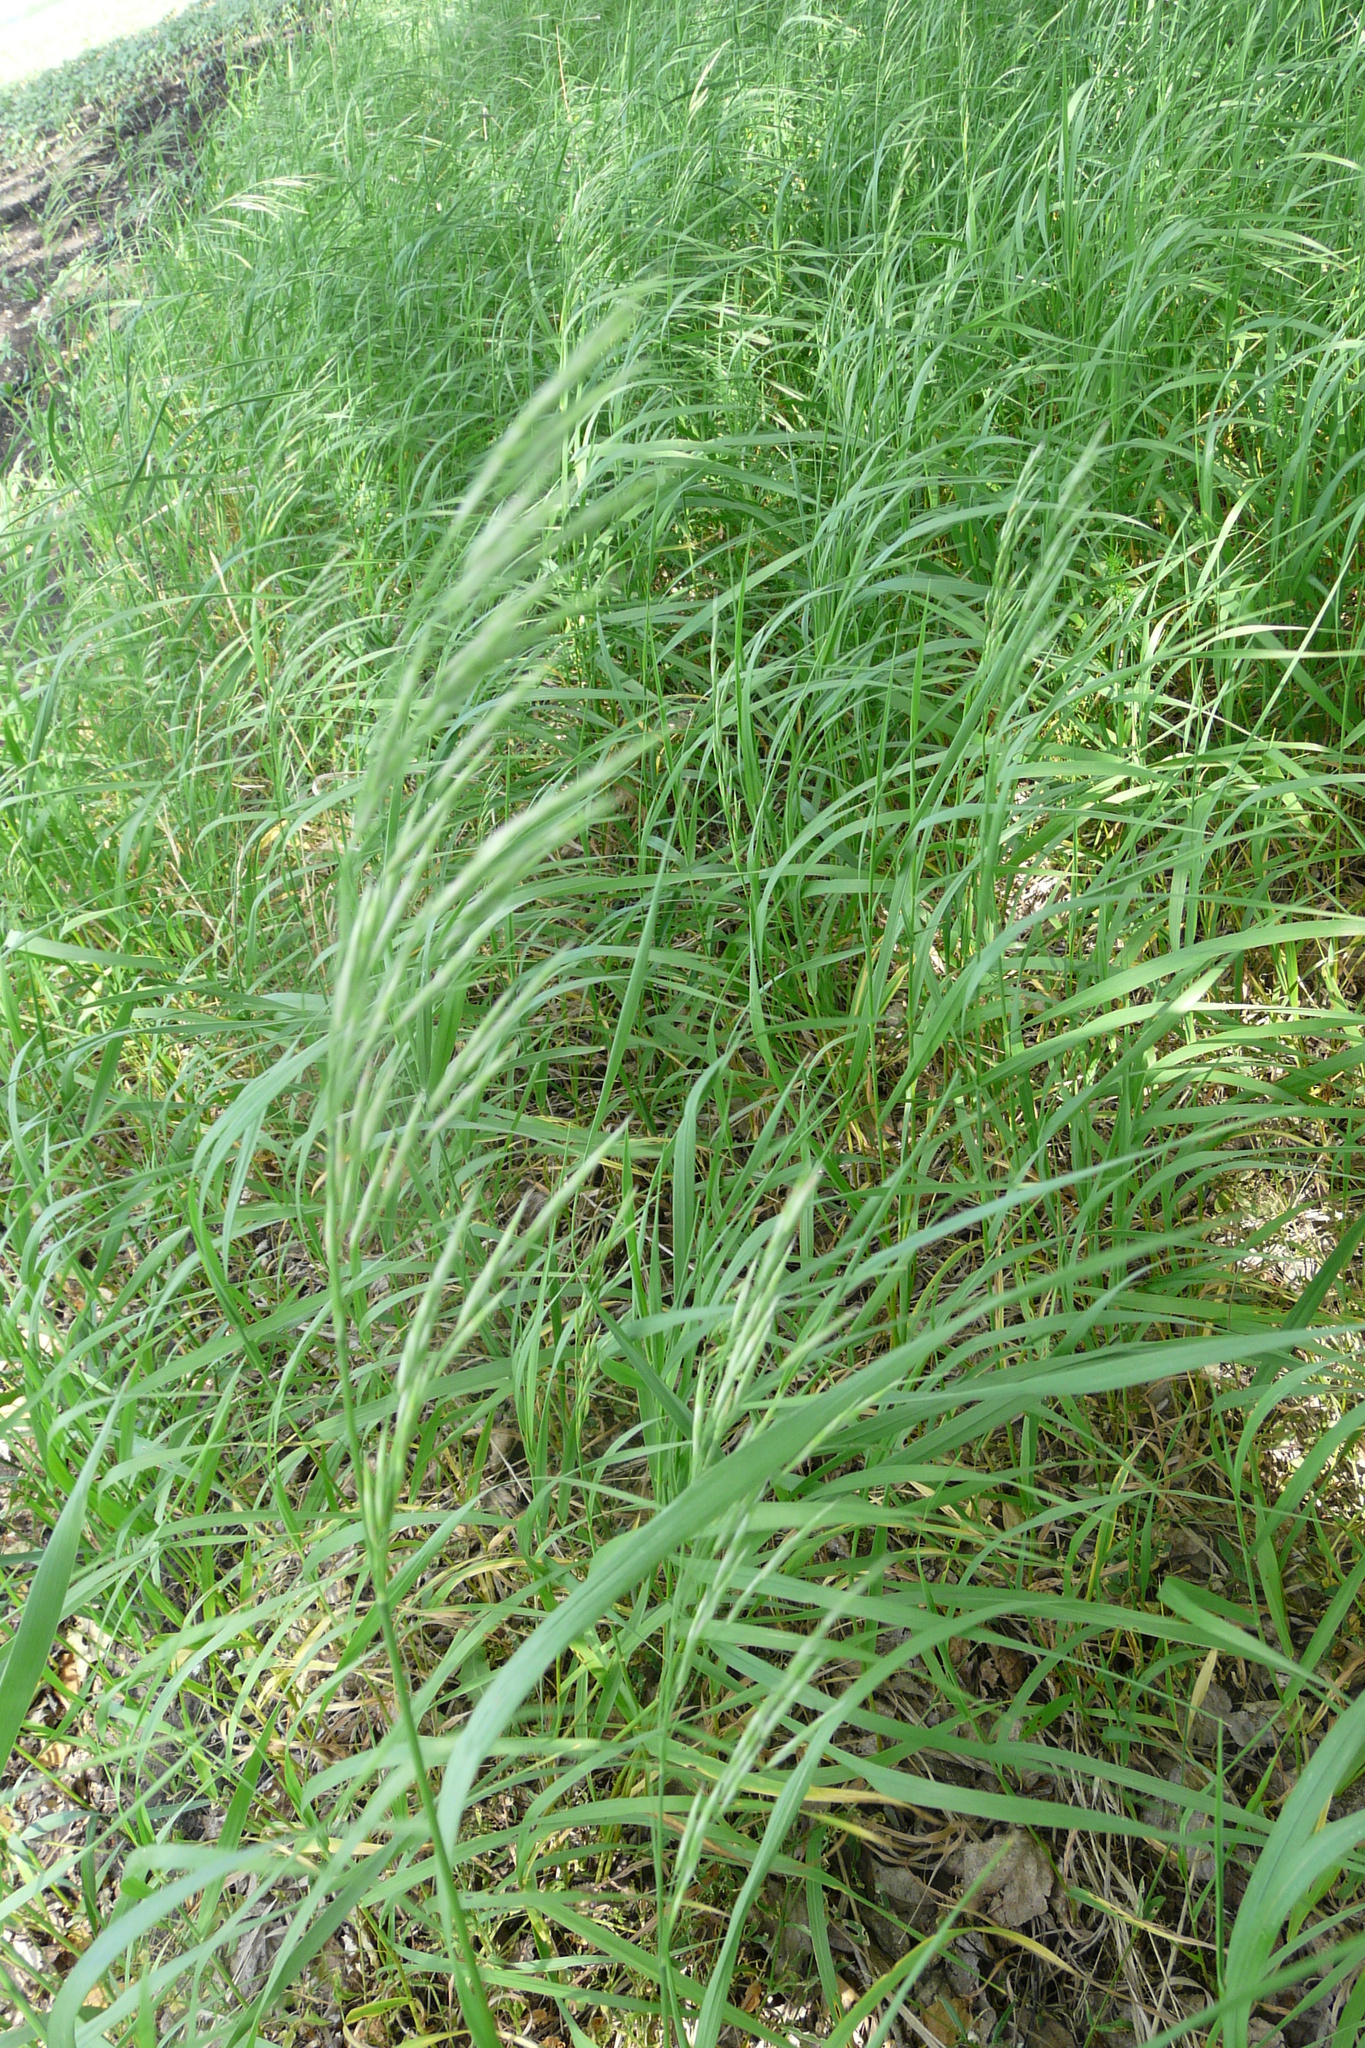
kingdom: Plantae
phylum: Tracheophyta
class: Liliopsida
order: Poales
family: Poaceae
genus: Bromus
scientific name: Bromus inermis
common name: Smooth brome
